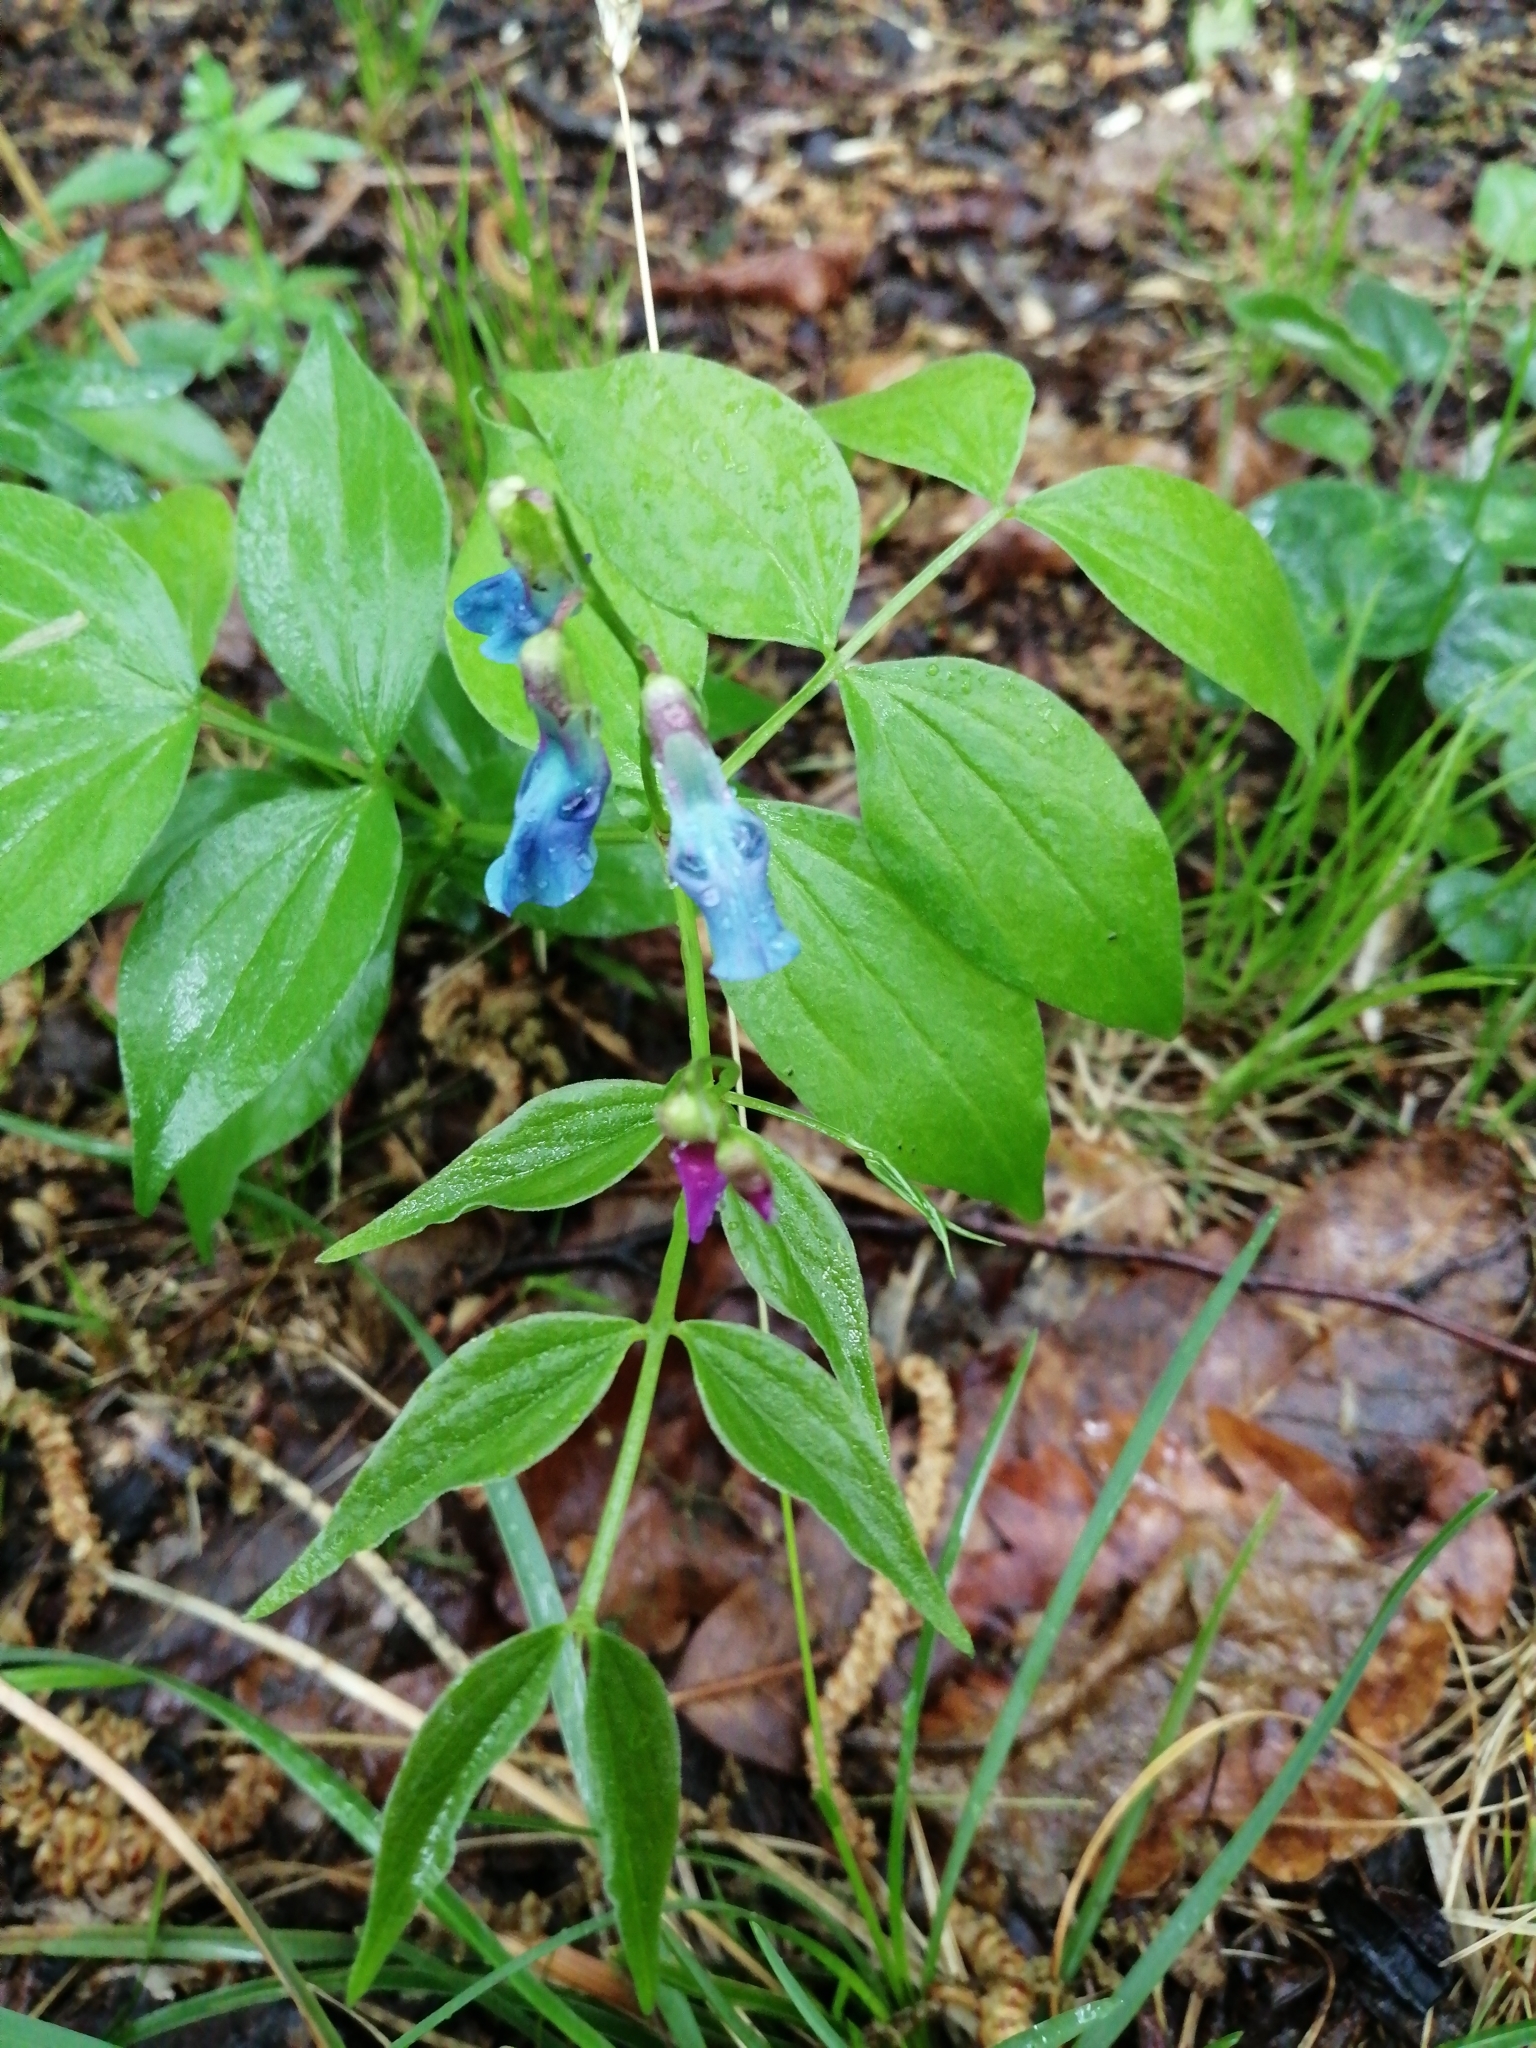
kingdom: Plantae
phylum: Tracheophyta
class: Magnoliopsida
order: Fabales
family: Fabaceae
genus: Lathyrus
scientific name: Lathyrus vernus
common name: Spring pea
